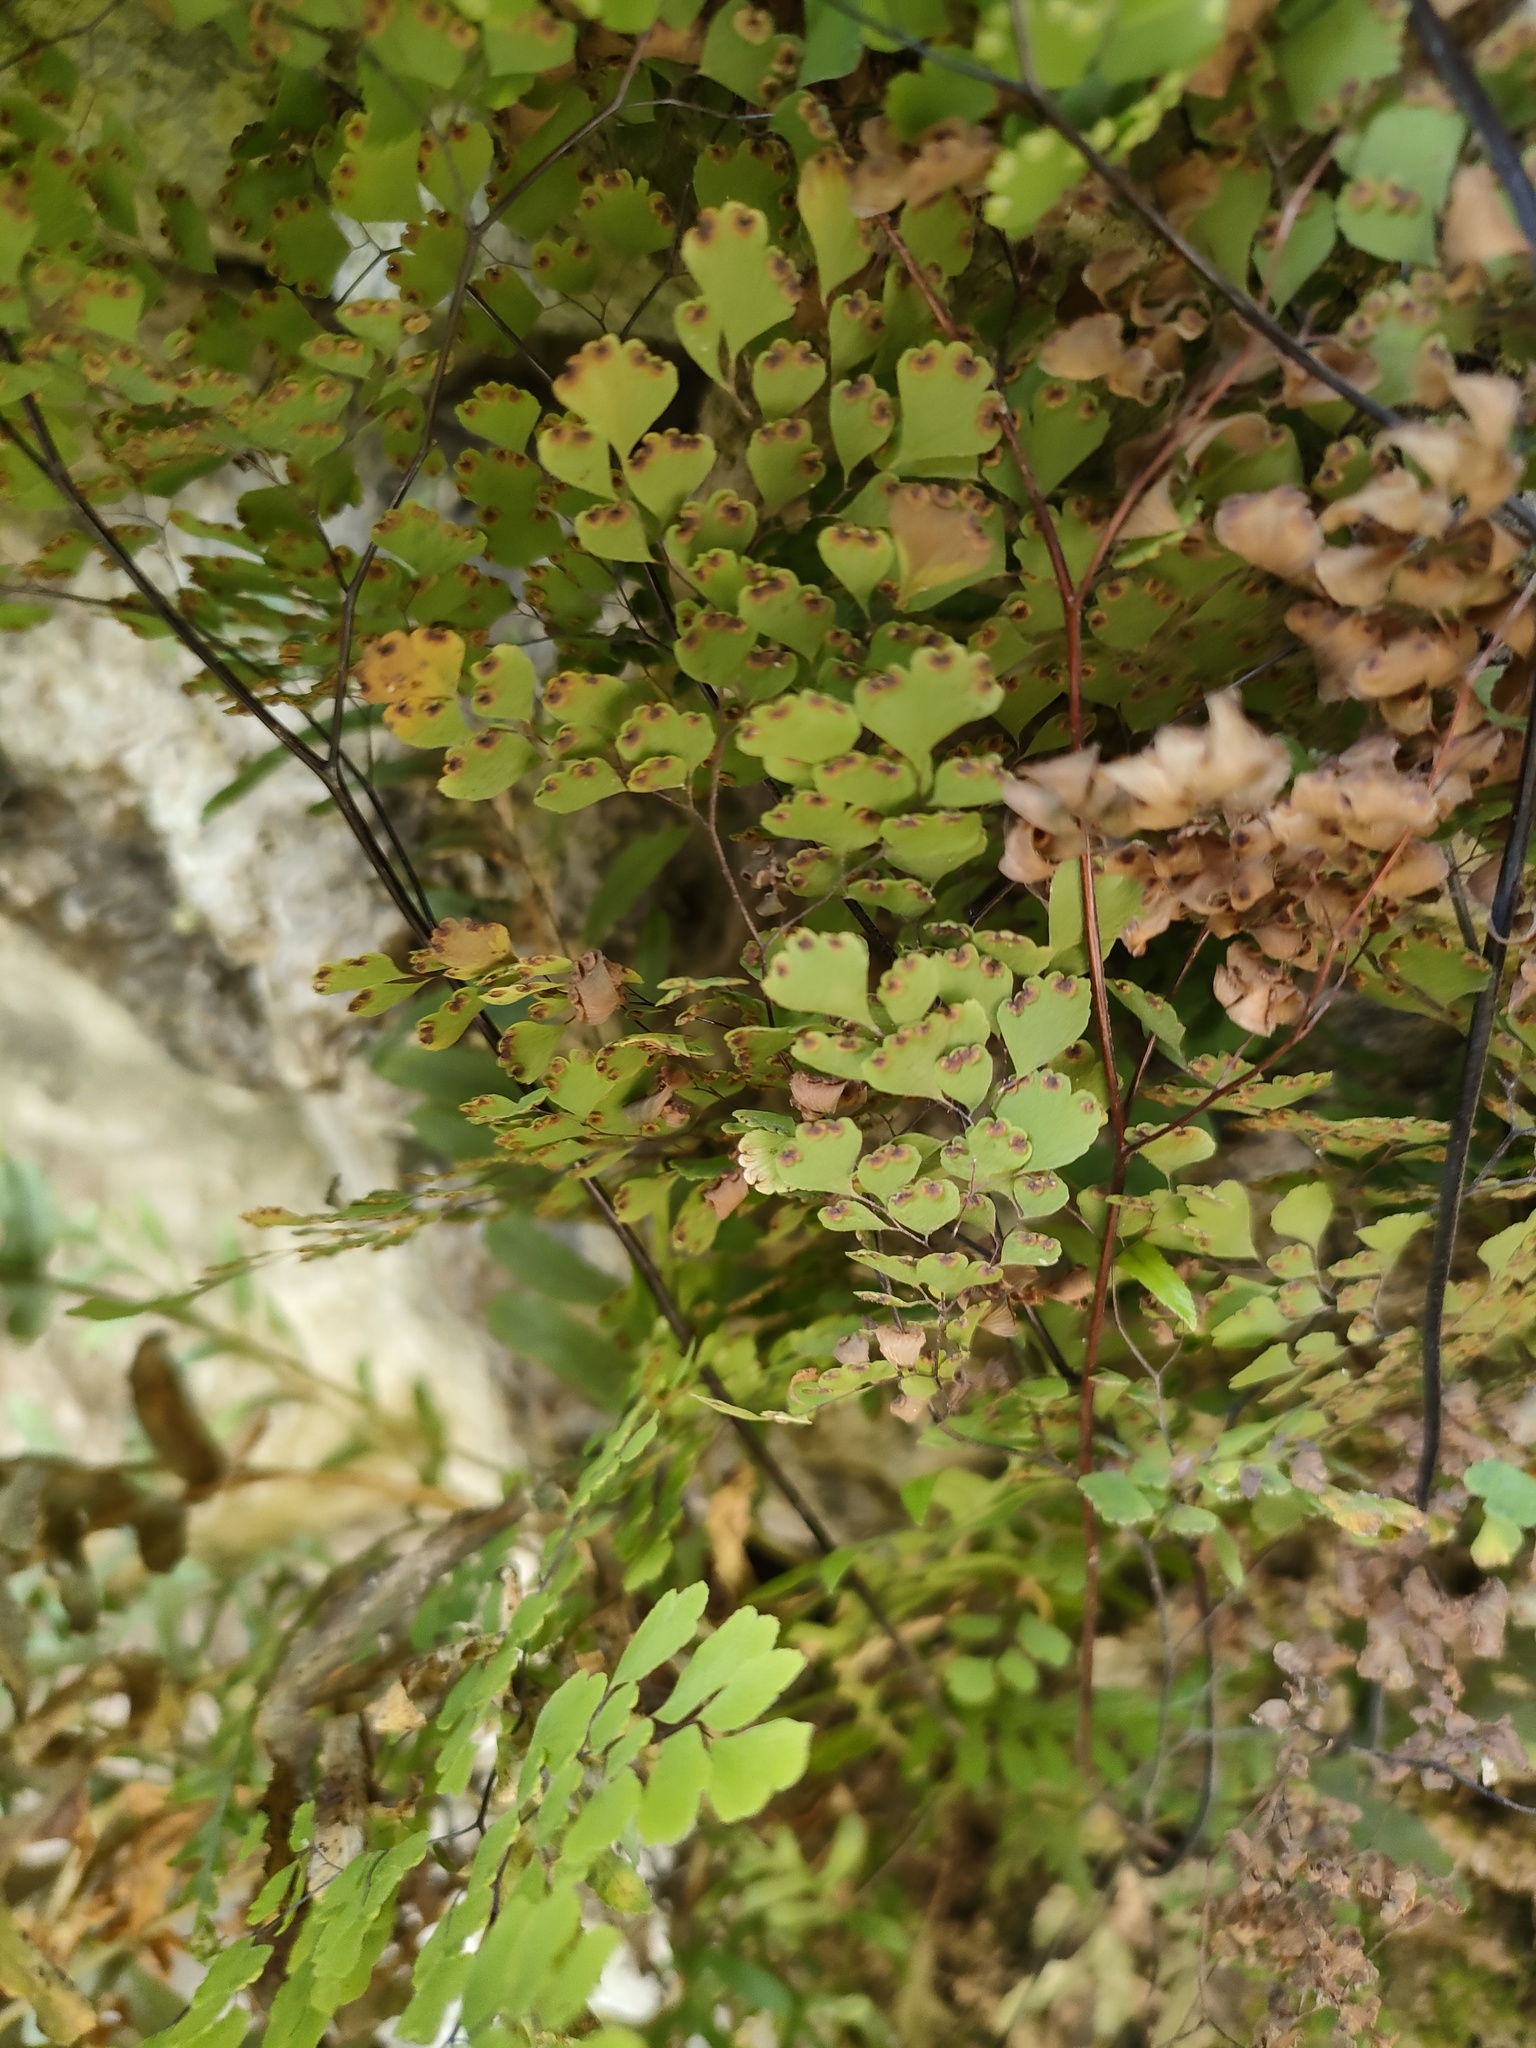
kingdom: Plantae
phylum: Tracheophyta
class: Polypodiopsida
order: Polypodiales
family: Pteridaceae
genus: Adiantum
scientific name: Adiantum raddianum
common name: Delta maidenhair fern
